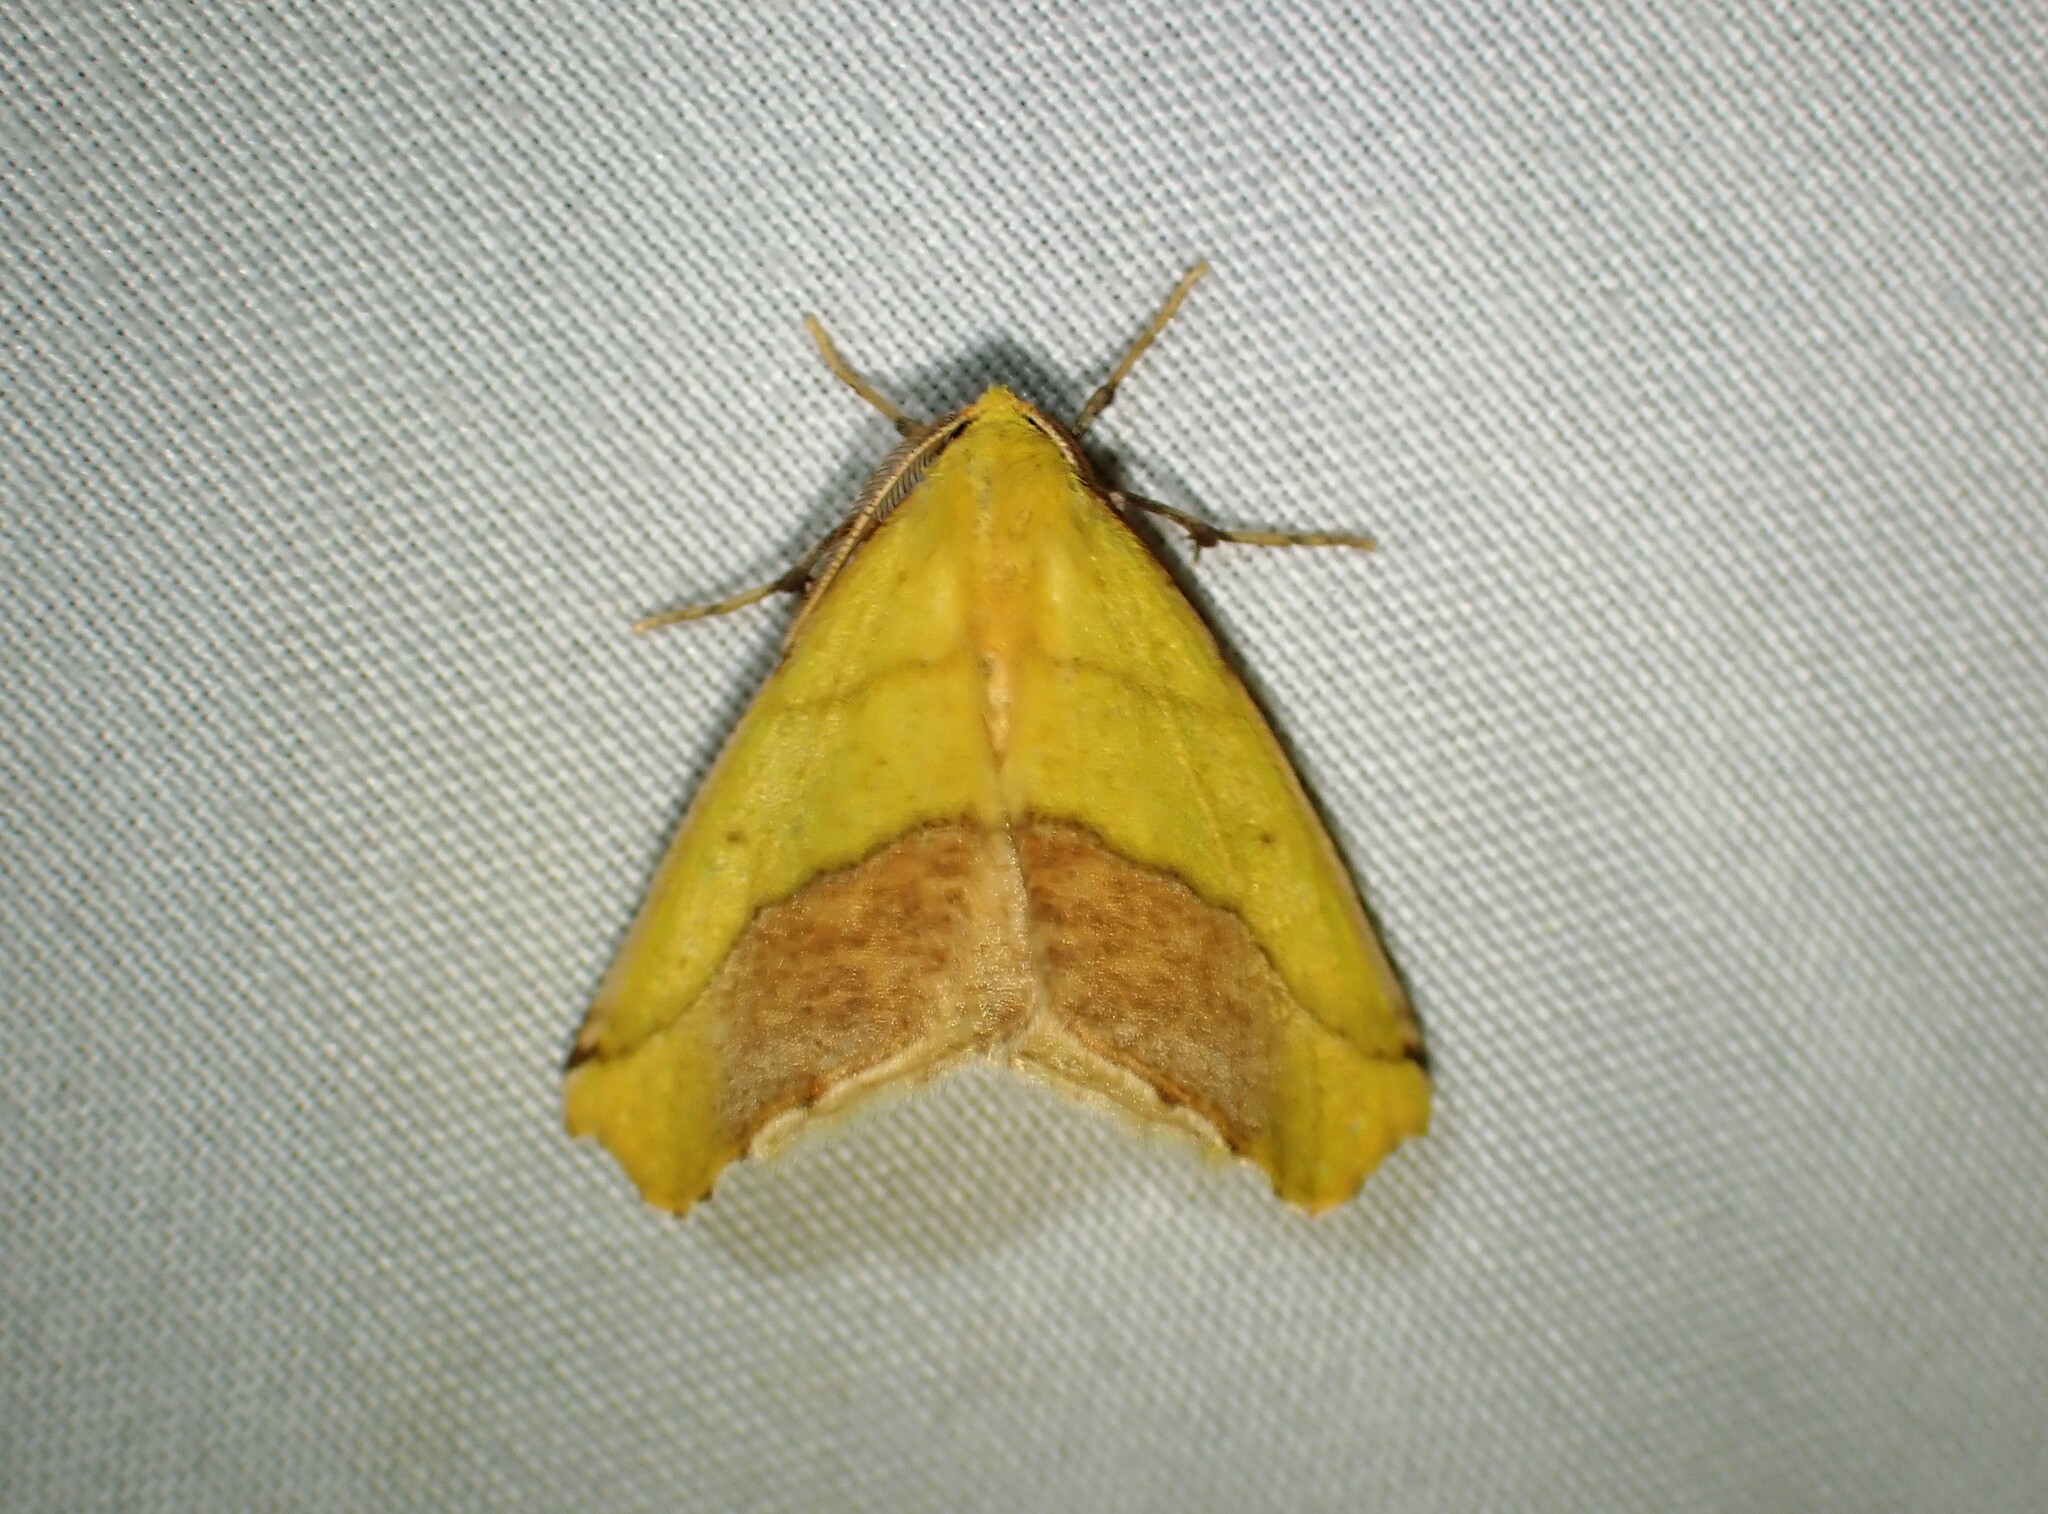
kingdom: Animalia
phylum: Arthropoda
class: Insecta
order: Lepidoptera
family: Geometridae
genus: Sicya
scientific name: Sicya macularia
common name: Sharp-lined yellow
